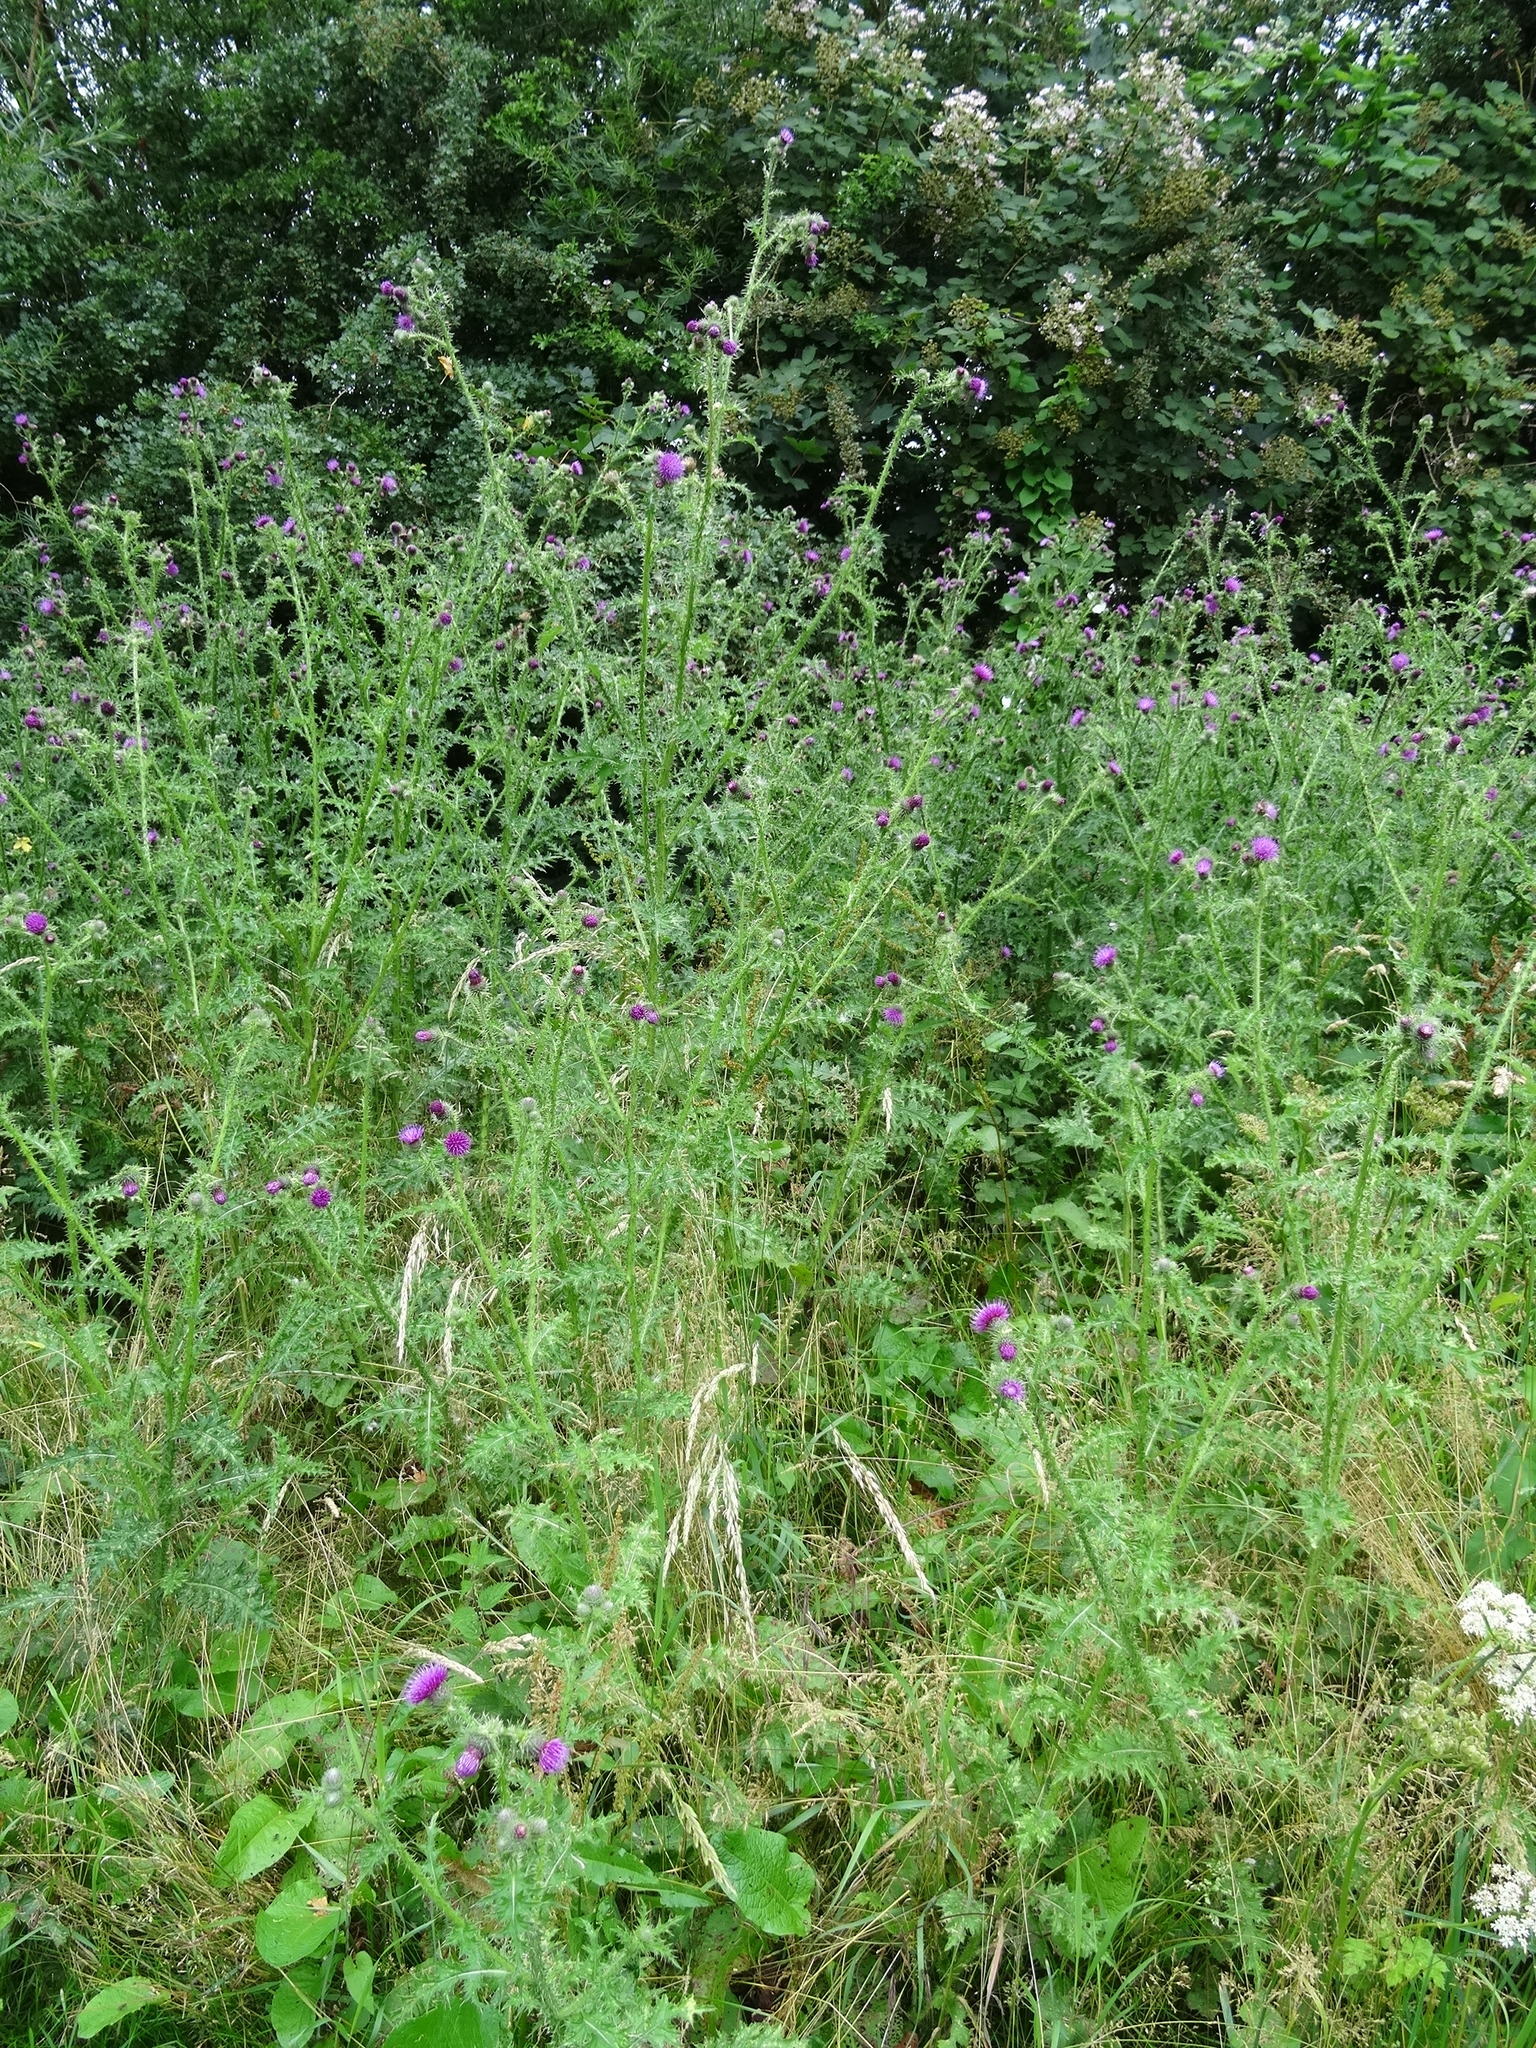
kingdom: Plantae
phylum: Tracheophyta
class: Magnoliopsida
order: Asterales
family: Asteraceae
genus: Carduus
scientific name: Carduus crispus
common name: Welted thistle
